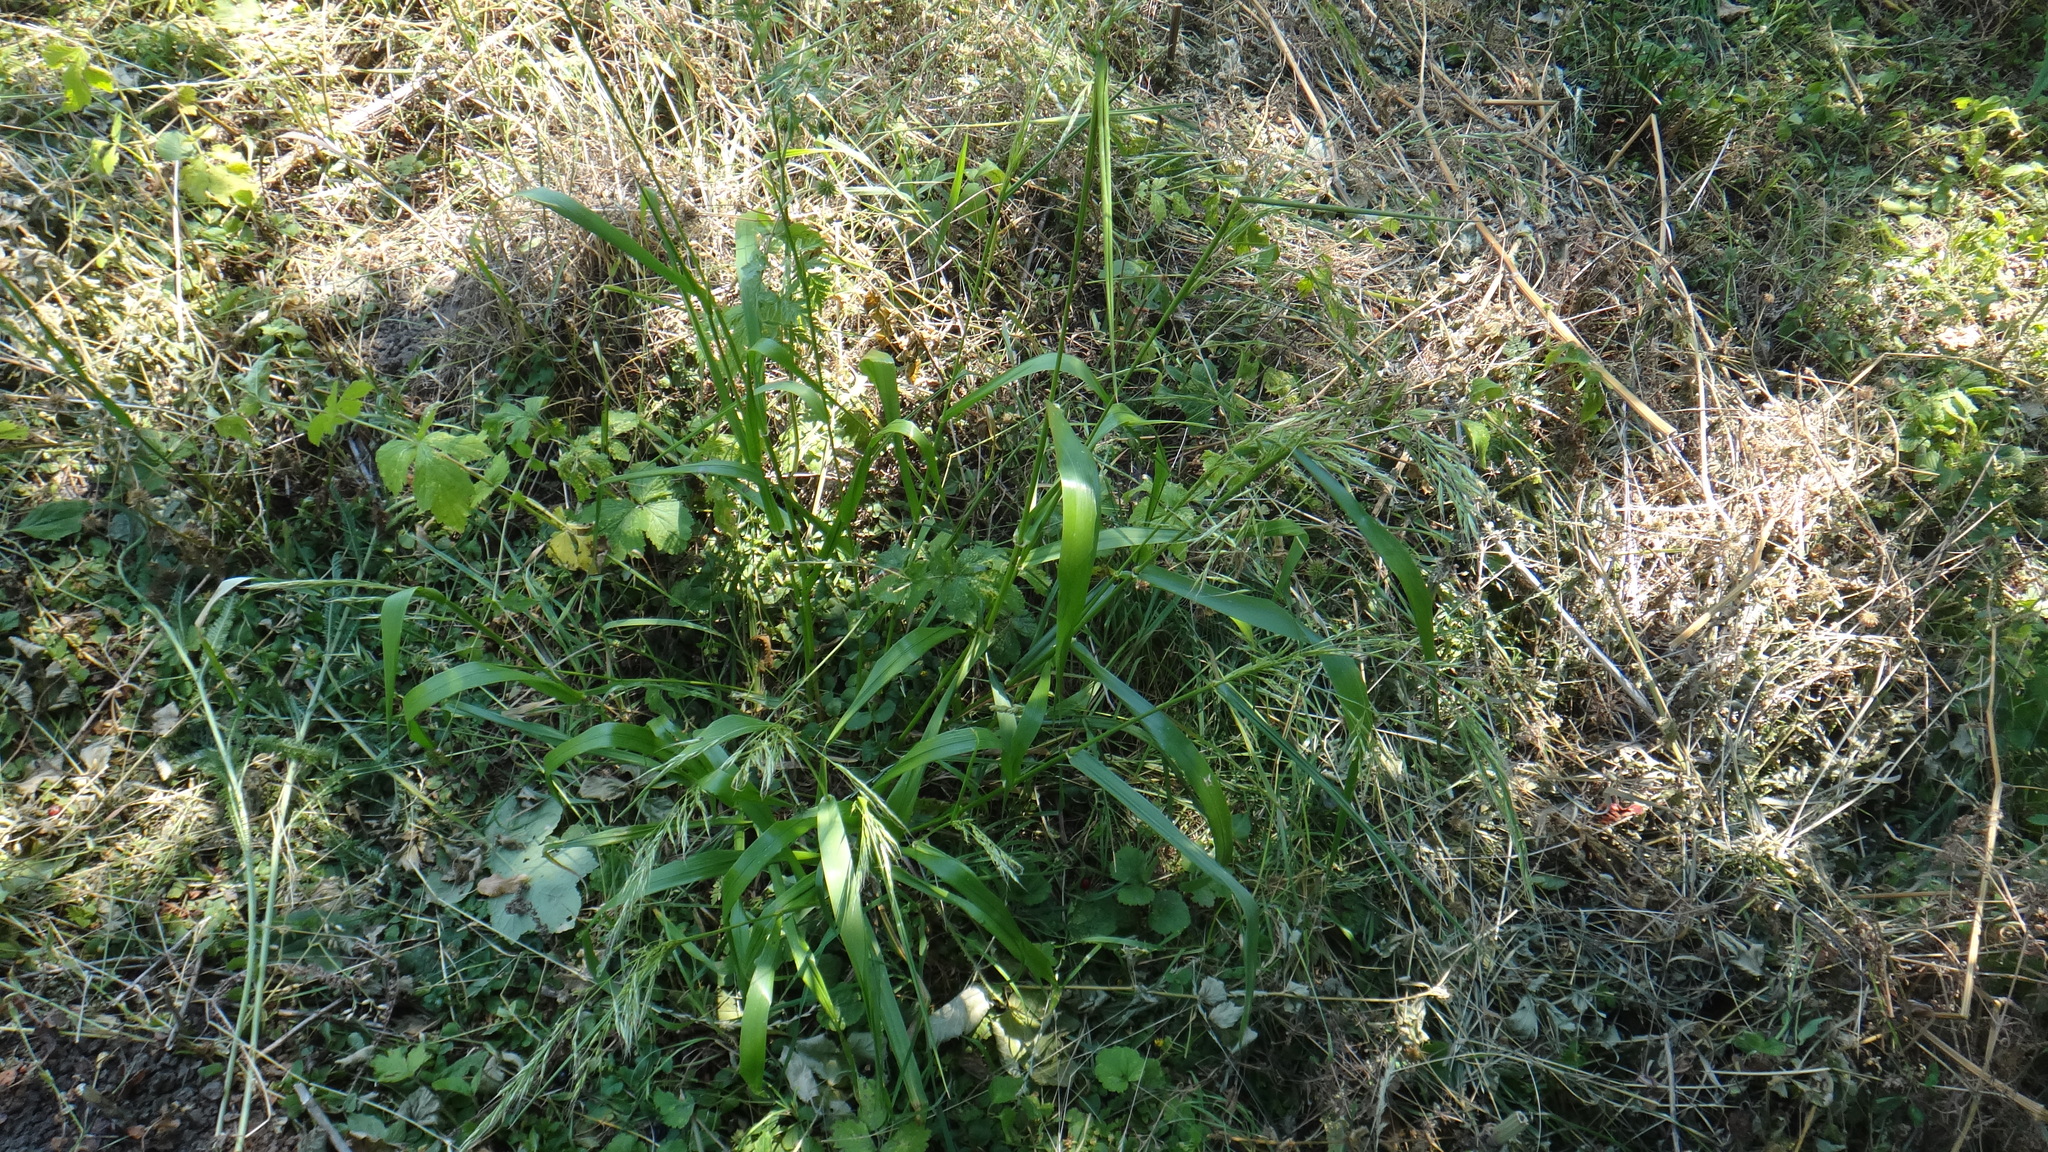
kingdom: Plantae
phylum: Tracheophyta
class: Liliopsida
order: Poales
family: Poaceae
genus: Lolium
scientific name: Lolium giganteum
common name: Giant fescue
